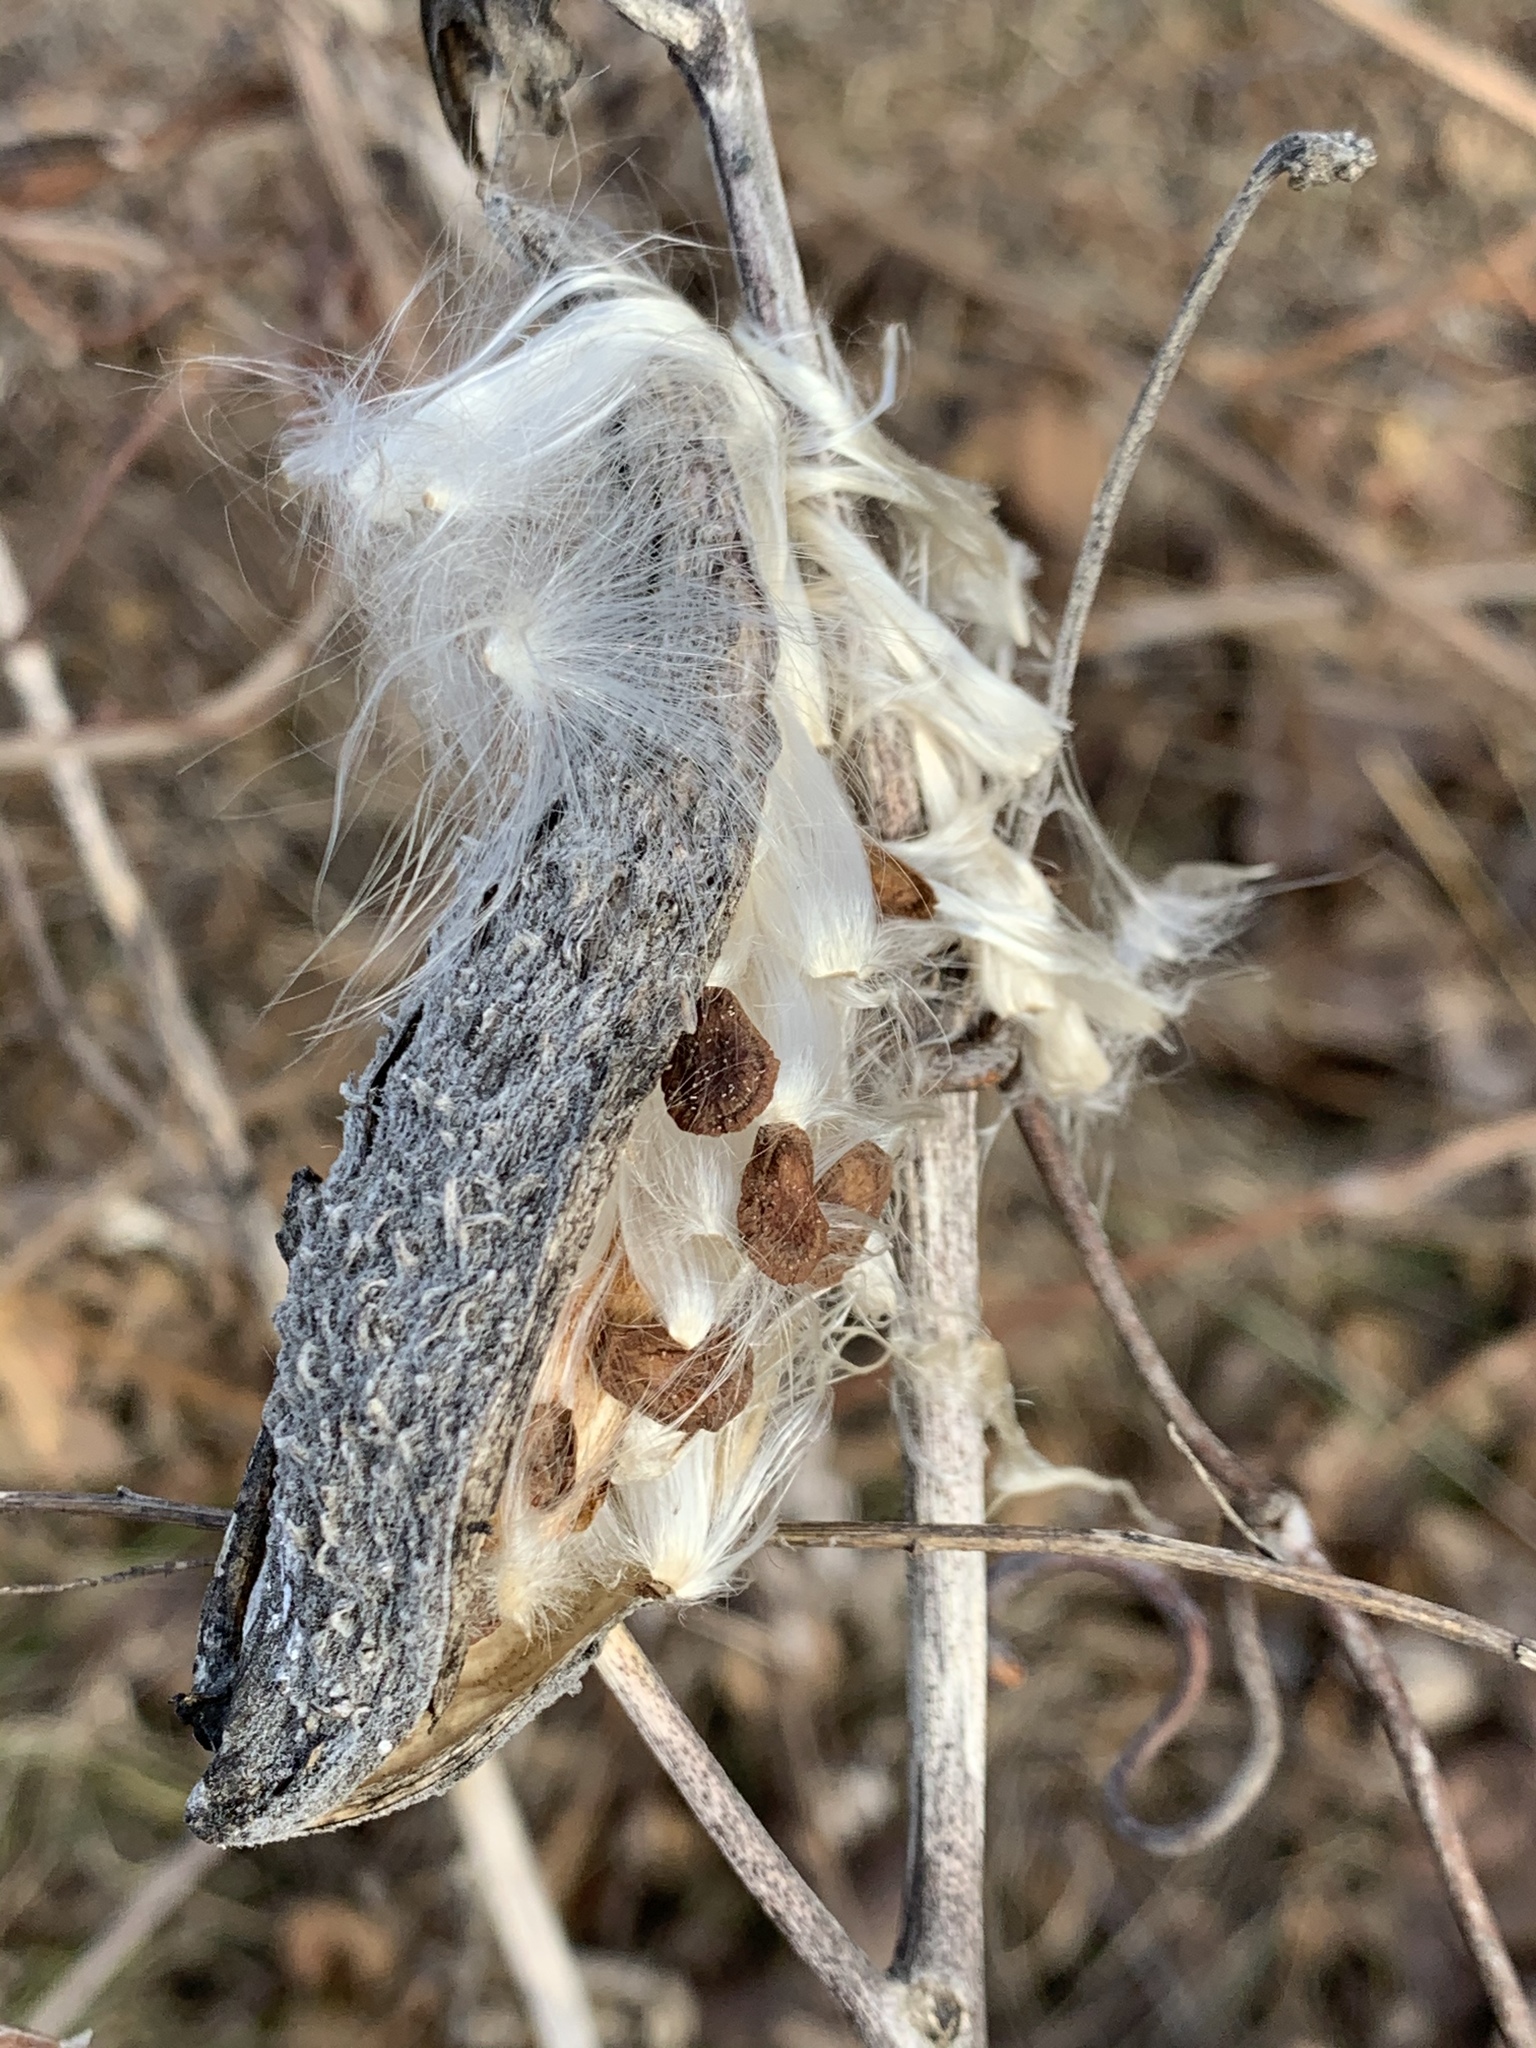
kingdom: Plantae
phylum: Tracheophyta
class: Magnoliopsida
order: Gentianales
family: Apocynaceae
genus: Asclepias
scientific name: Asclepias syriaca
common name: Common milkweed
